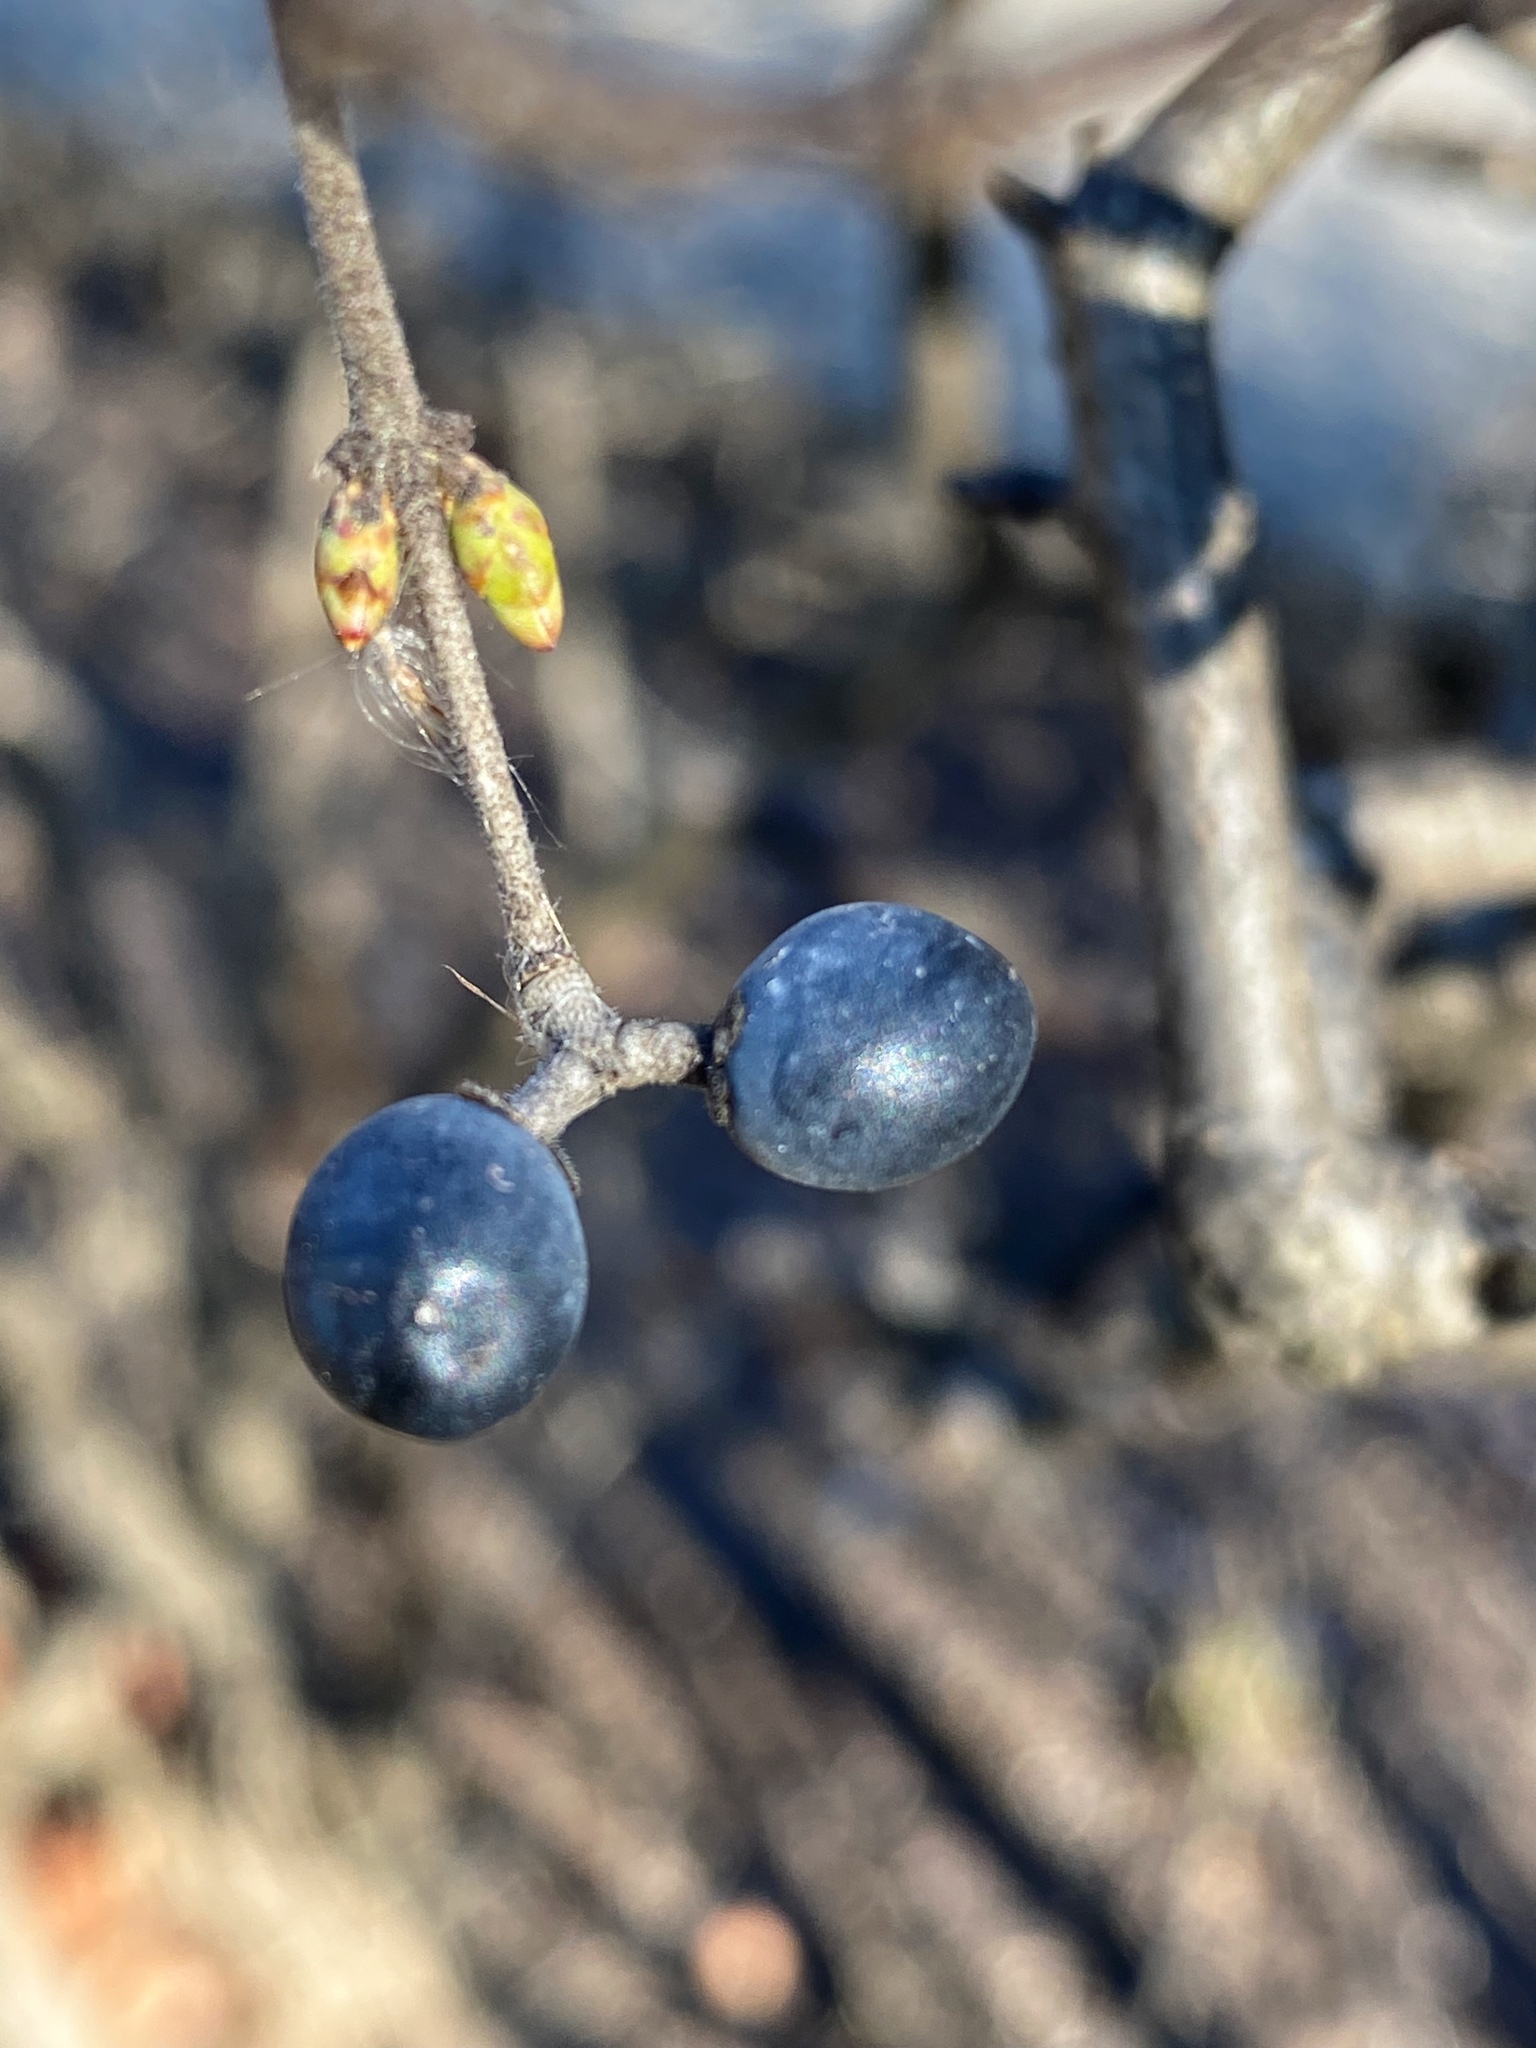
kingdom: Plantae
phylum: Tracheophyta
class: Magnoliopsida
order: Lamiales
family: Oleaceae
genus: Ligustrum
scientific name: Ligustrum obtusifolium
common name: Border privet
